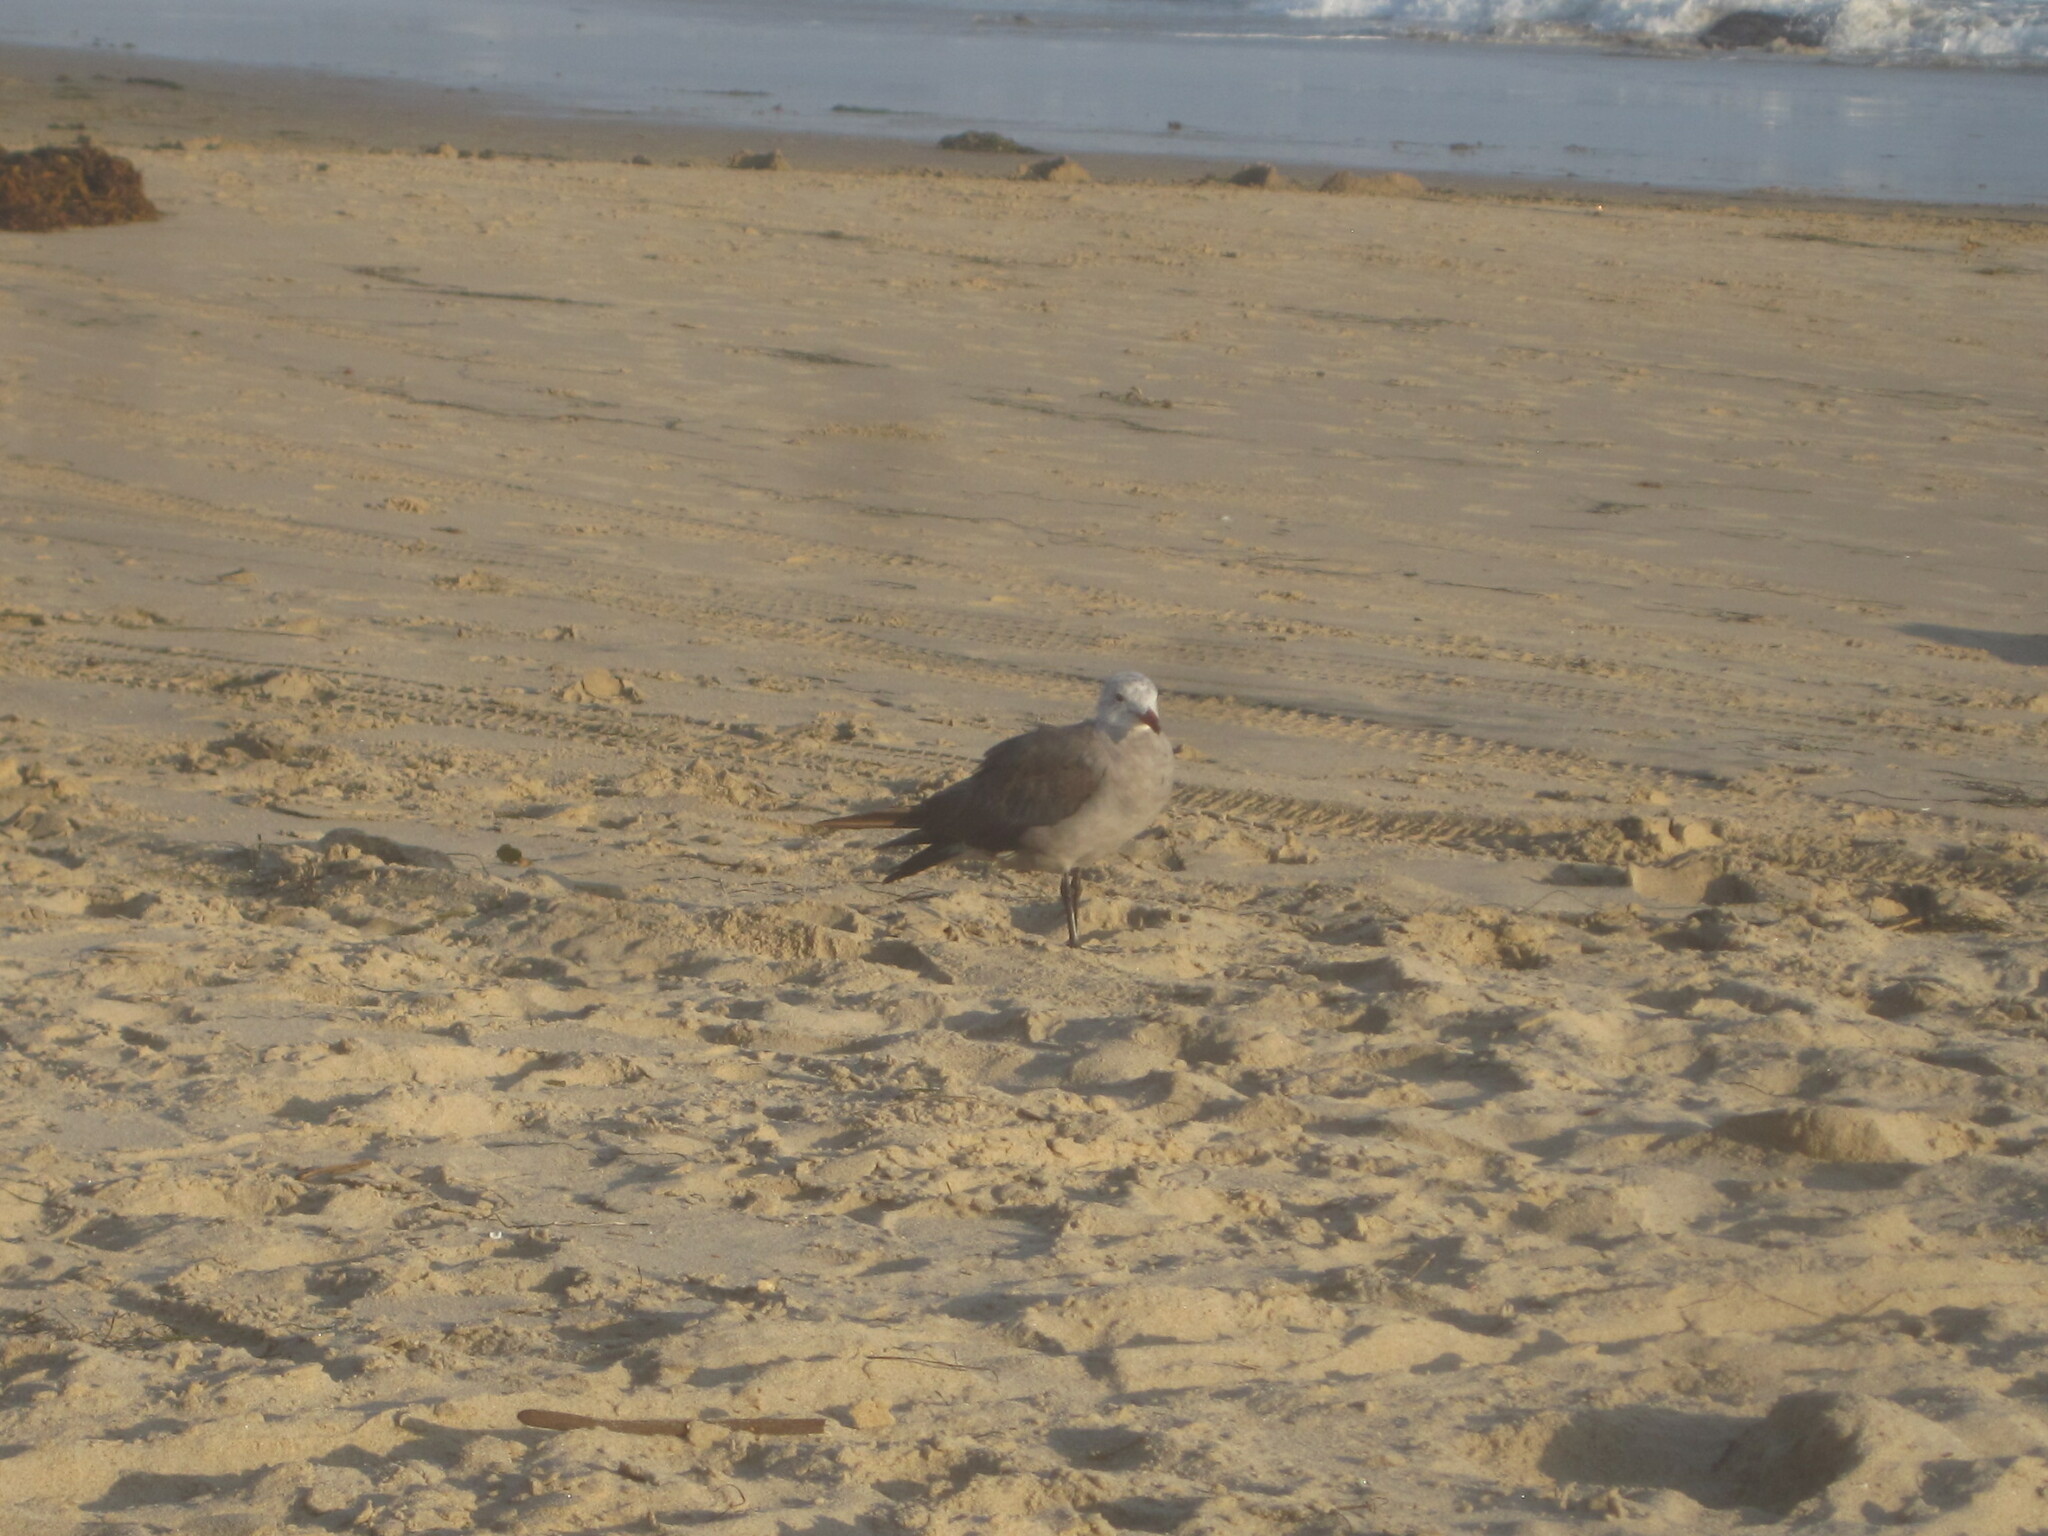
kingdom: Animalia
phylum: Chordata
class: Aves
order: Charadriiformes
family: Laridae
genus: Larus
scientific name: Larus heermanni
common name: Heermann's gull
